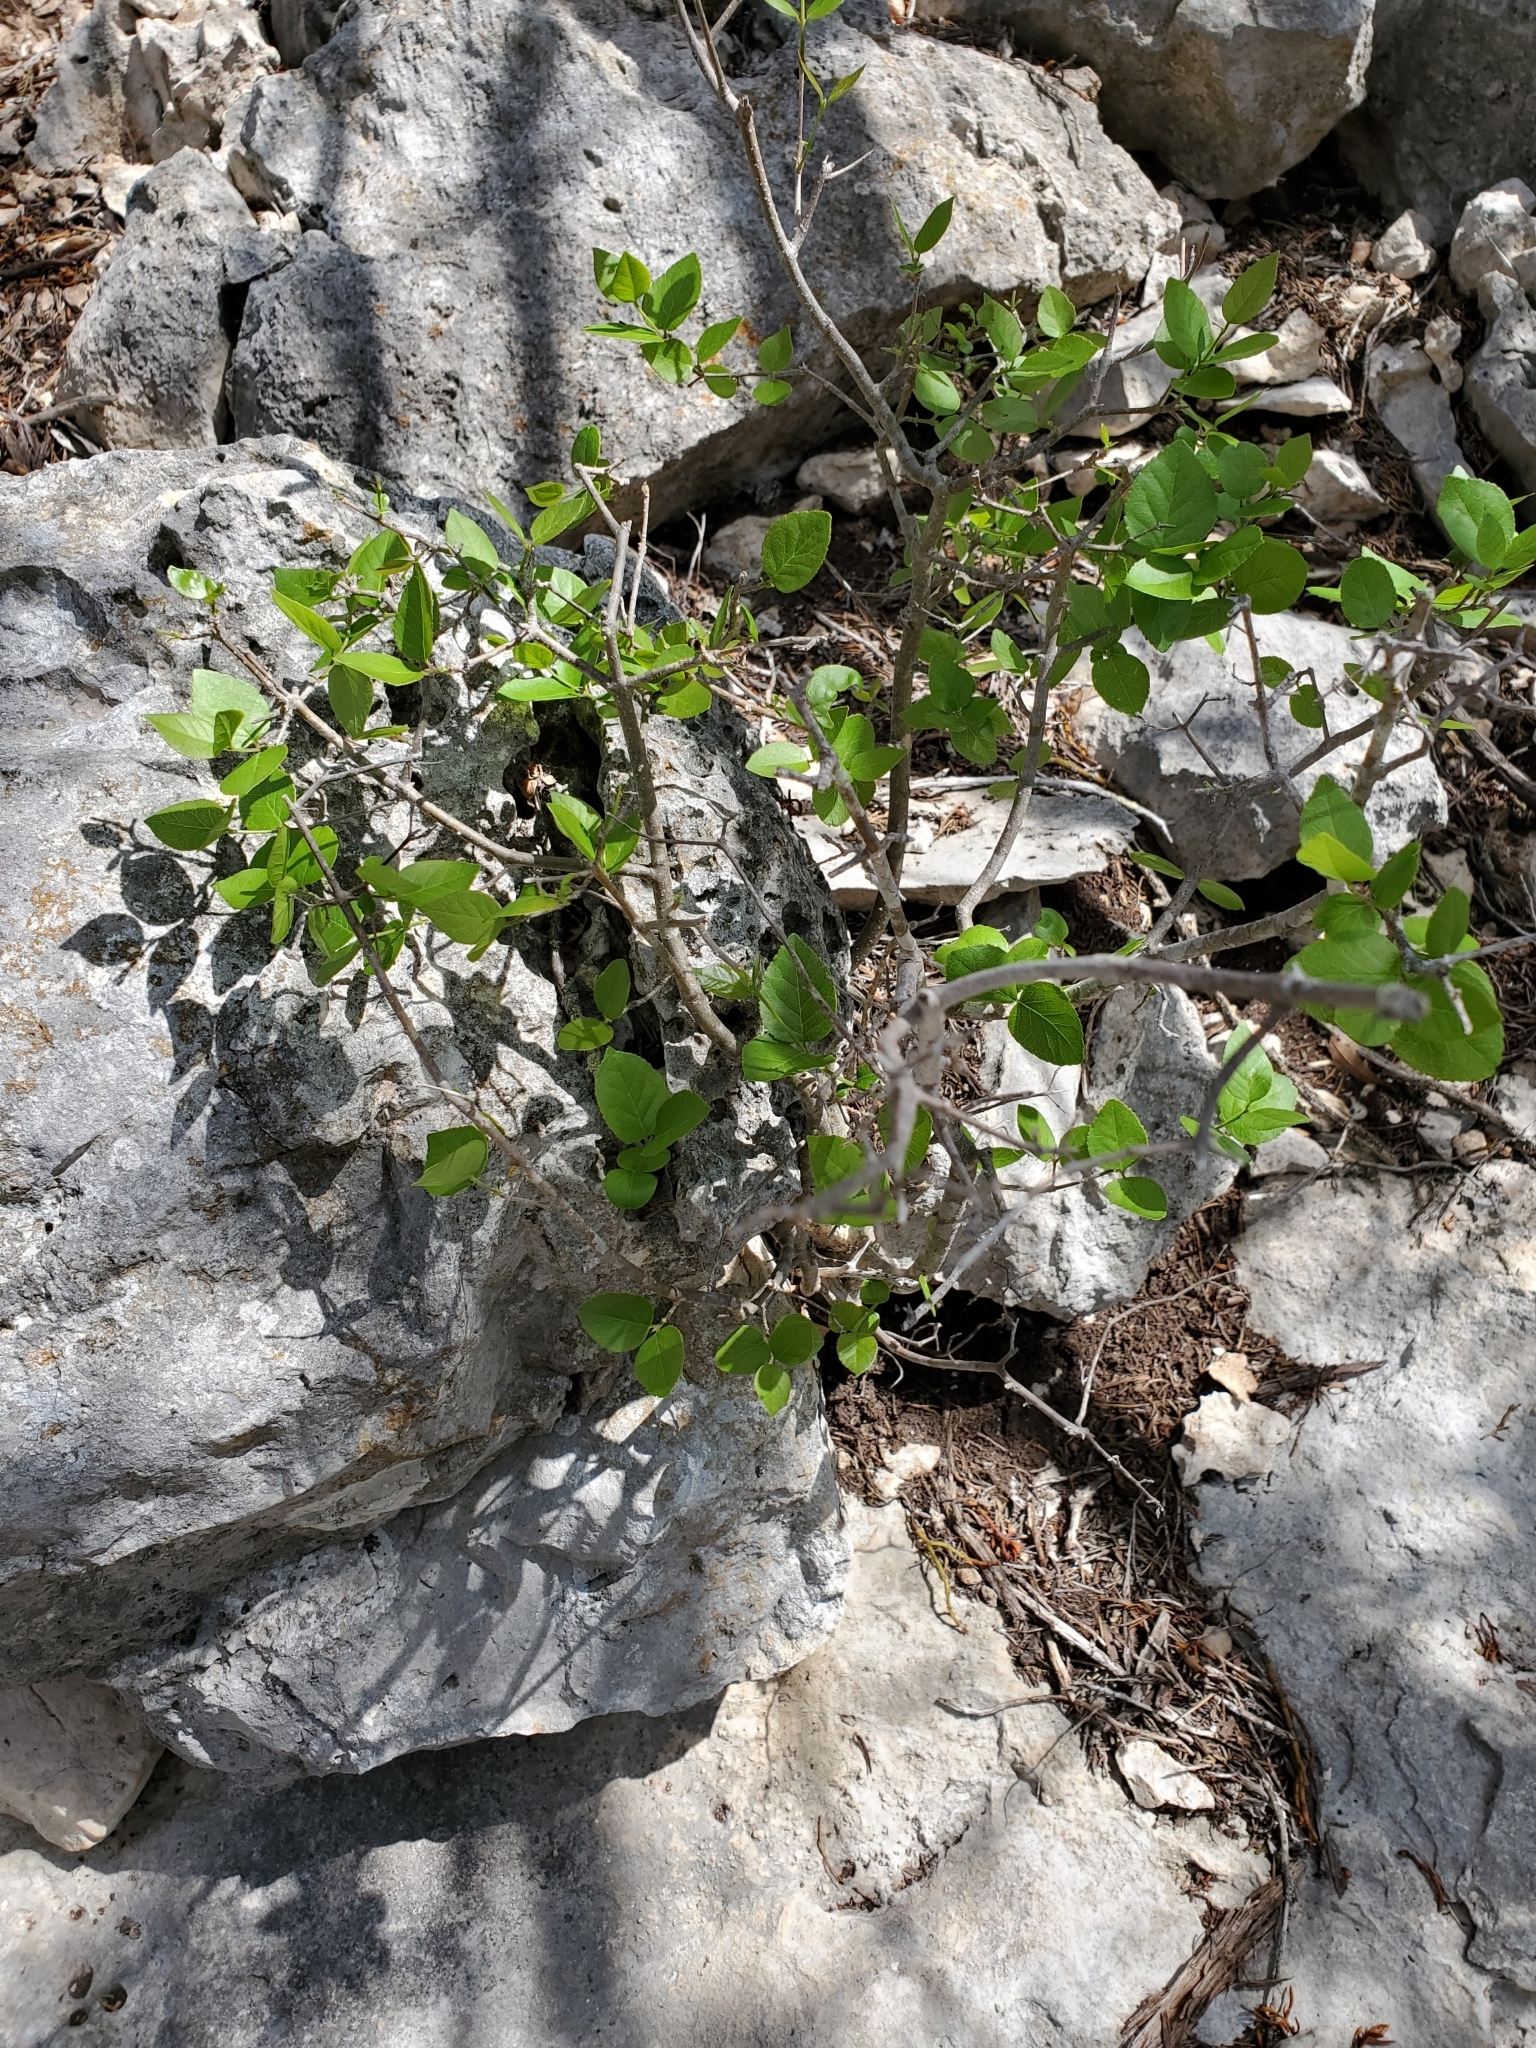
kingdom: Plantae
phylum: Tracheophyta
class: Magnoliopsida
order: Lamiales
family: Oleaceae
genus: Forestiera
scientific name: Forestiera reticulata
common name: Netleaf swamp-privet
